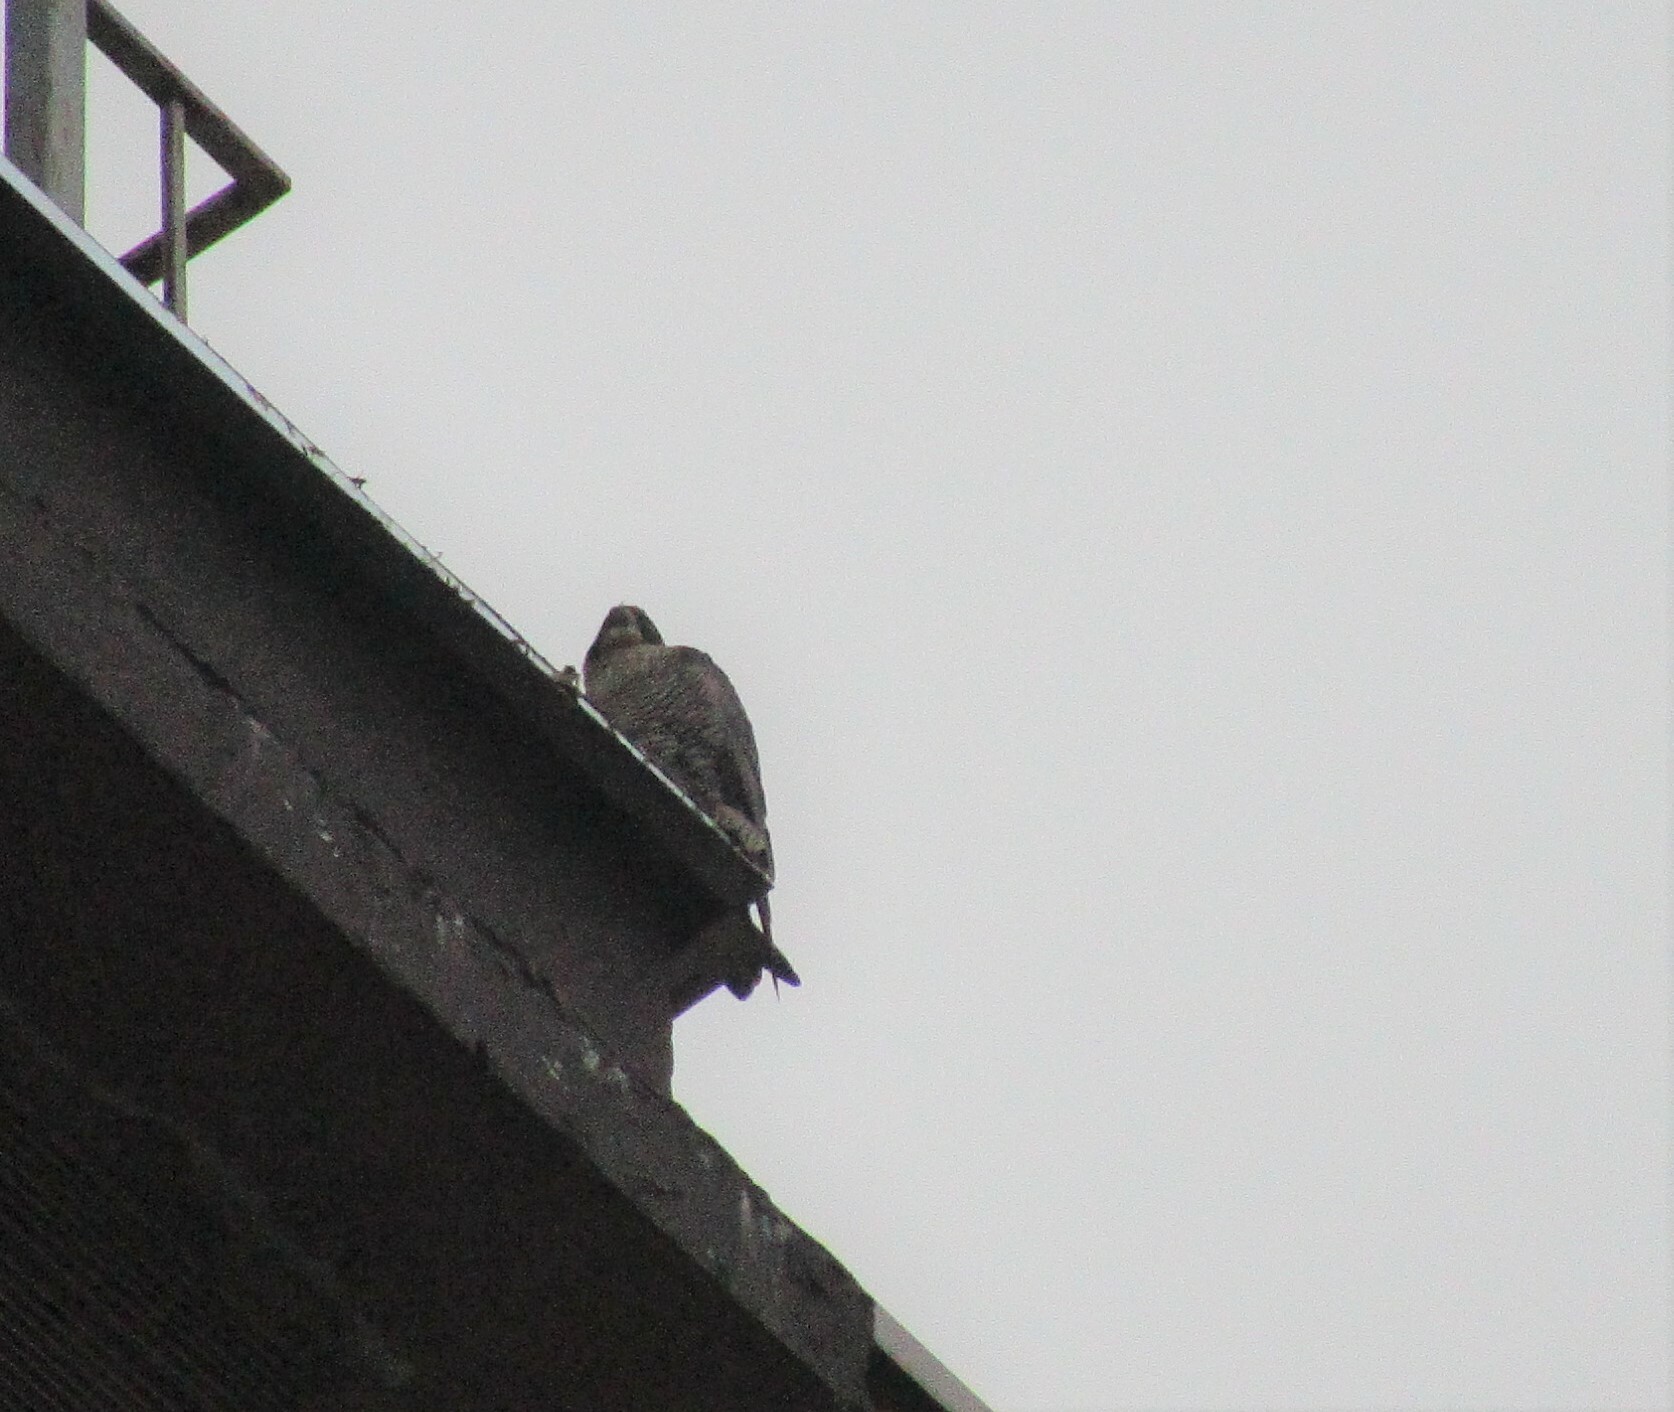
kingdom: Animalia
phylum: Chordata
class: Aves
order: Falconiformes
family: Falconidae
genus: Falco
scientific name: Falco peregrinus
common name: Peregrine falcon
